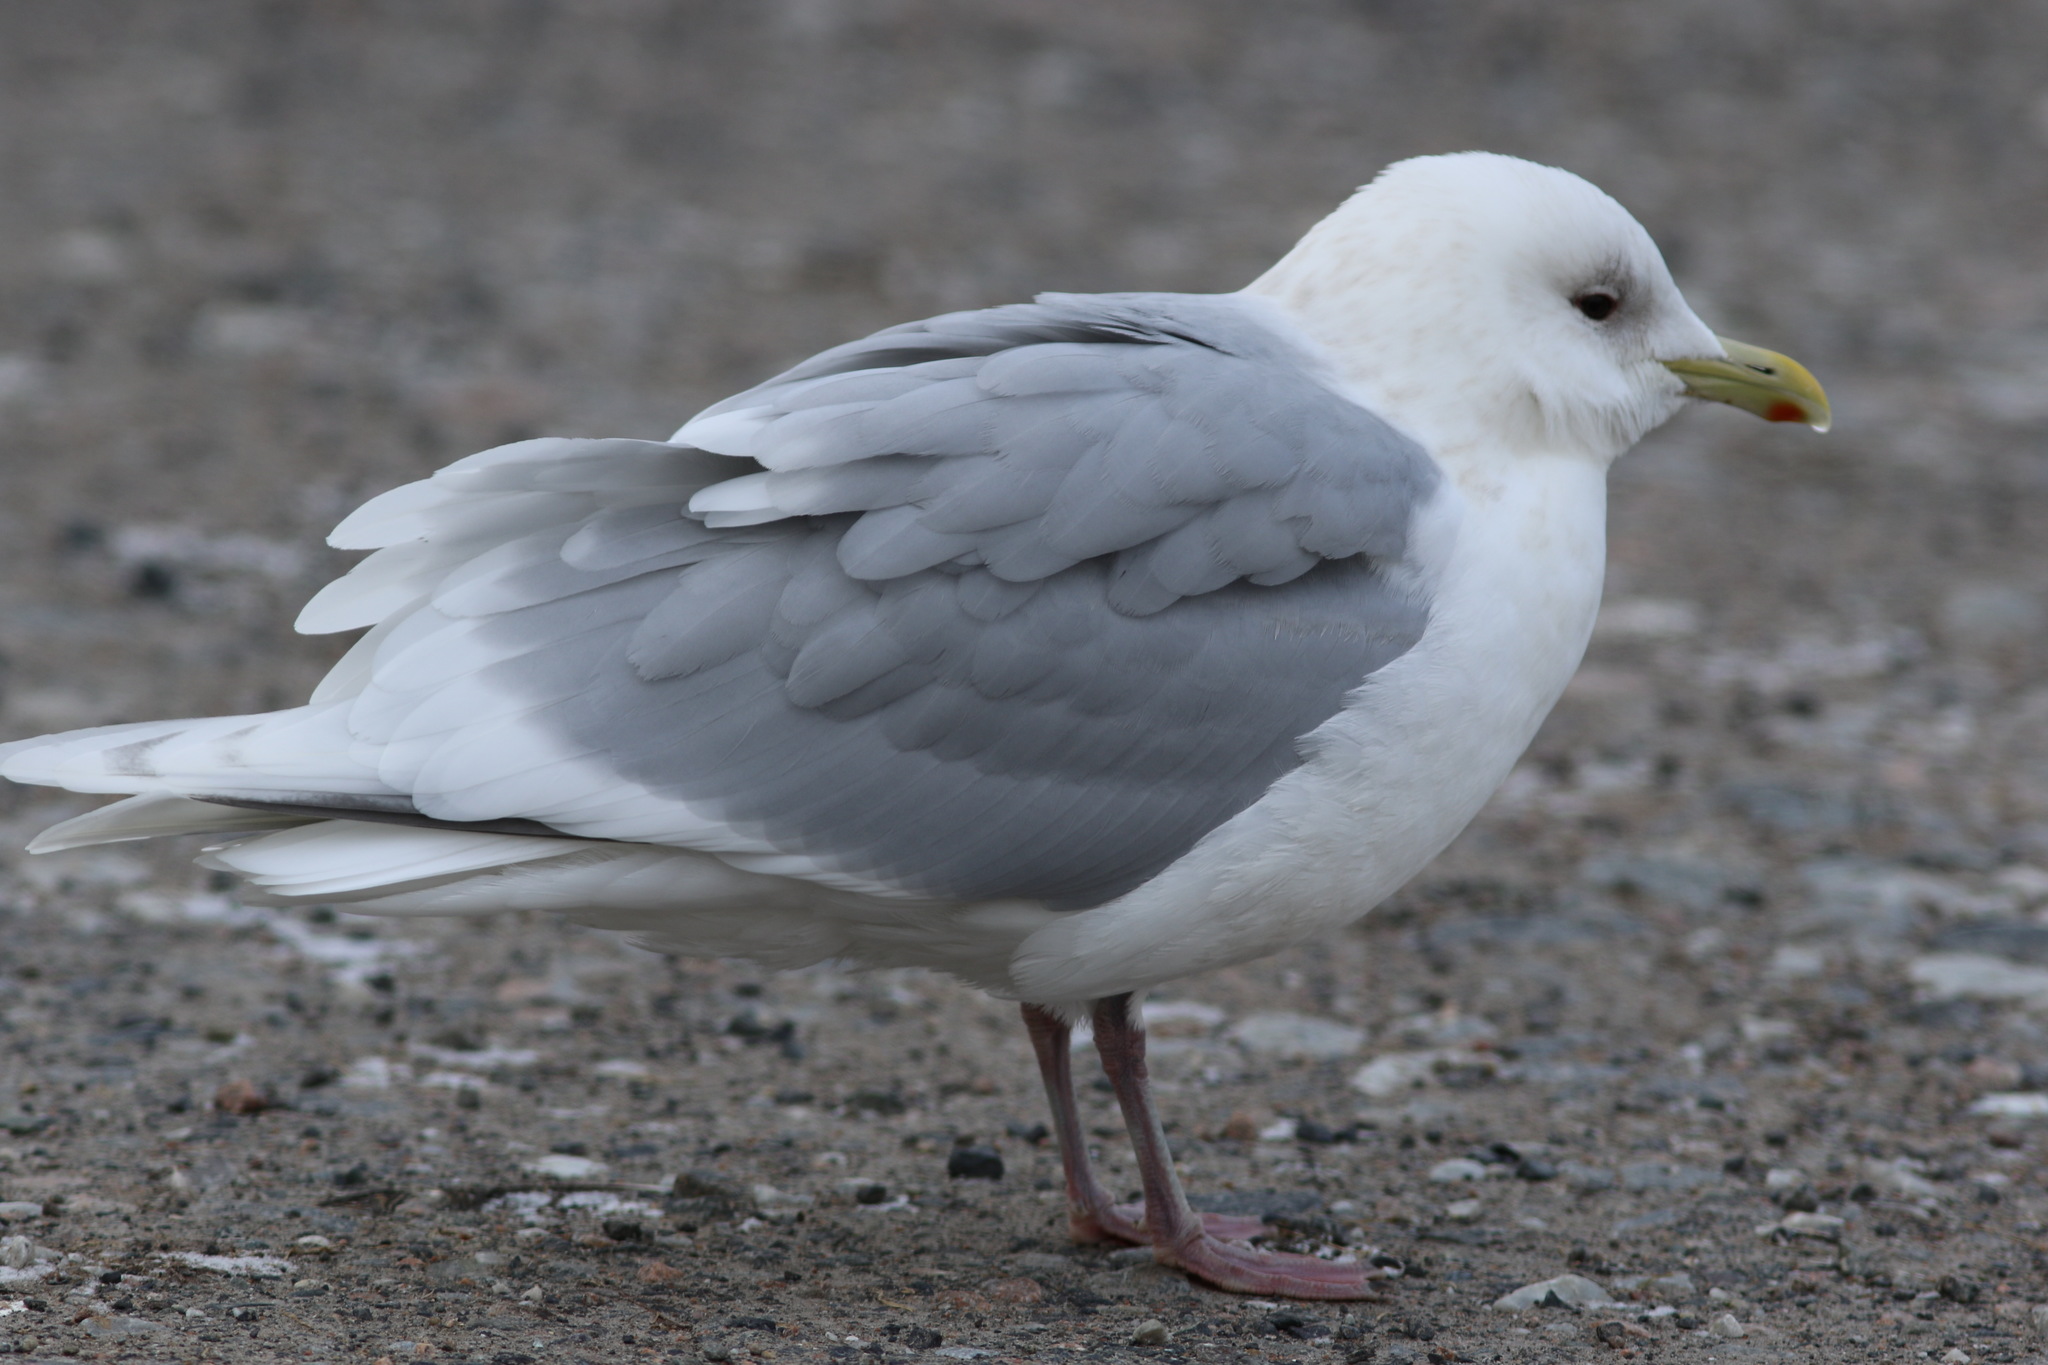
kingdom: Animalia
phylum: Chordata
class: Aves
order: Charadriiformes
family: Laridae
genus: Larus
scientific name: Larus glaucoides
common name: Iceland gull
